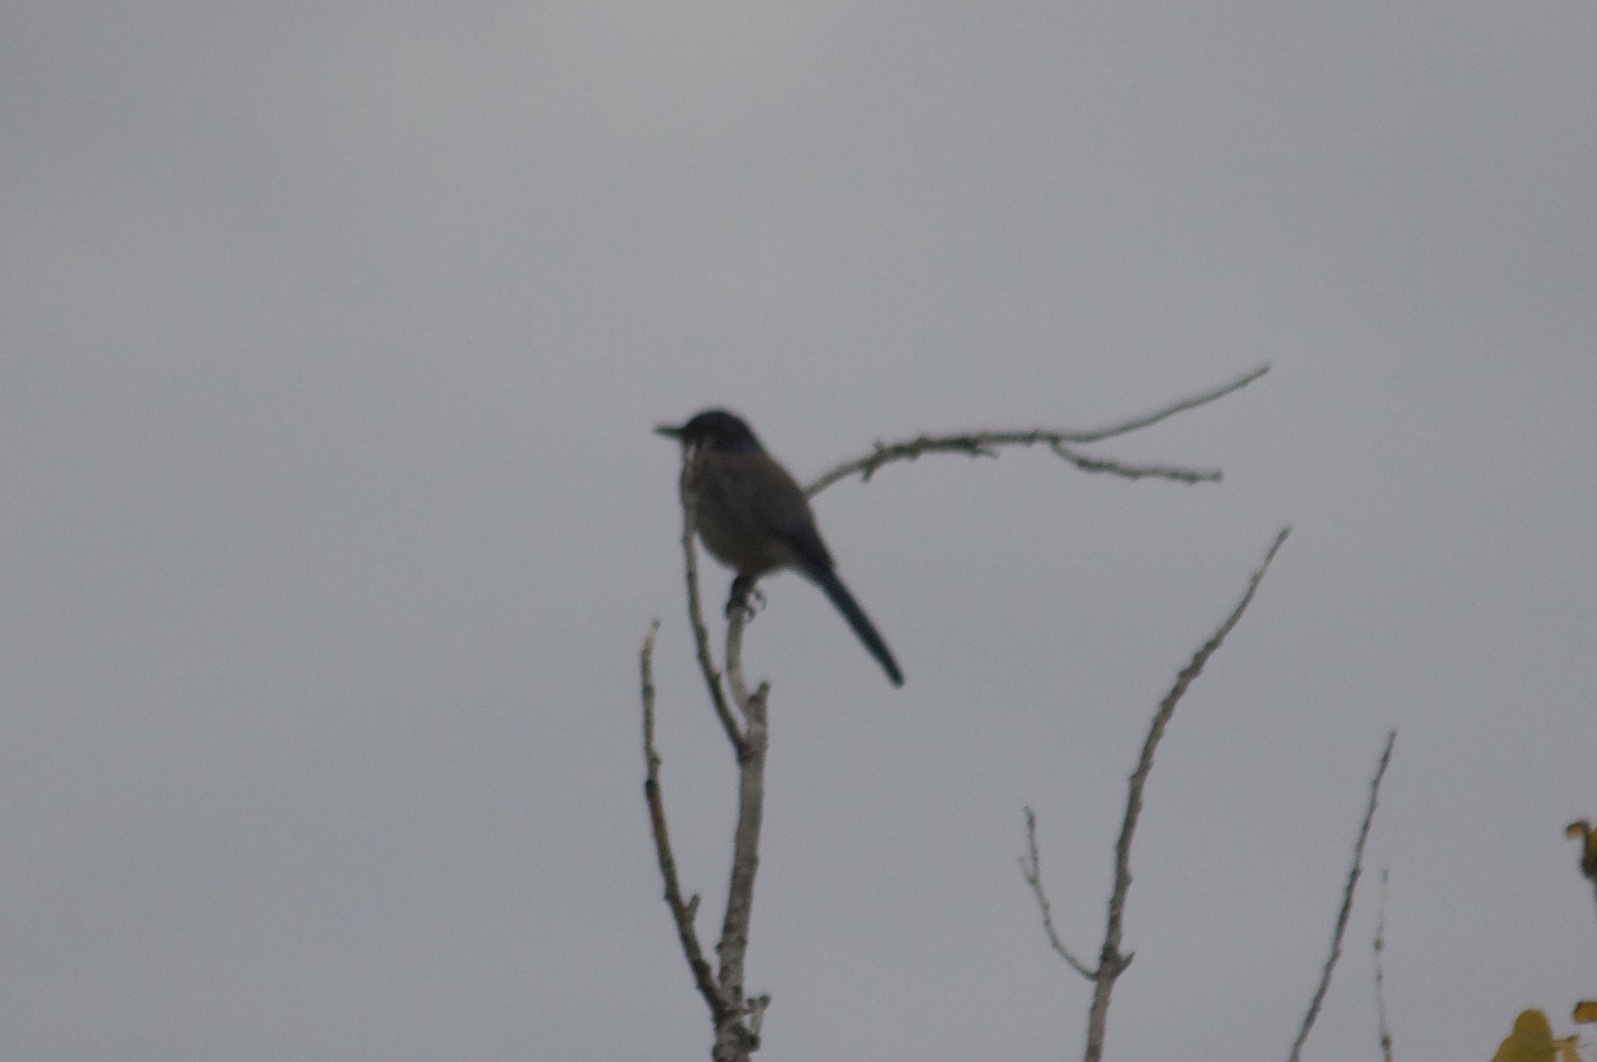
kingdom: Animalia
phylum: Chordata
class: Aves
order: Passeriformes
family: Corvidae
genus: Aphelocoma
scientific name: Aphelocoma californica
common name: California scrub-jay
